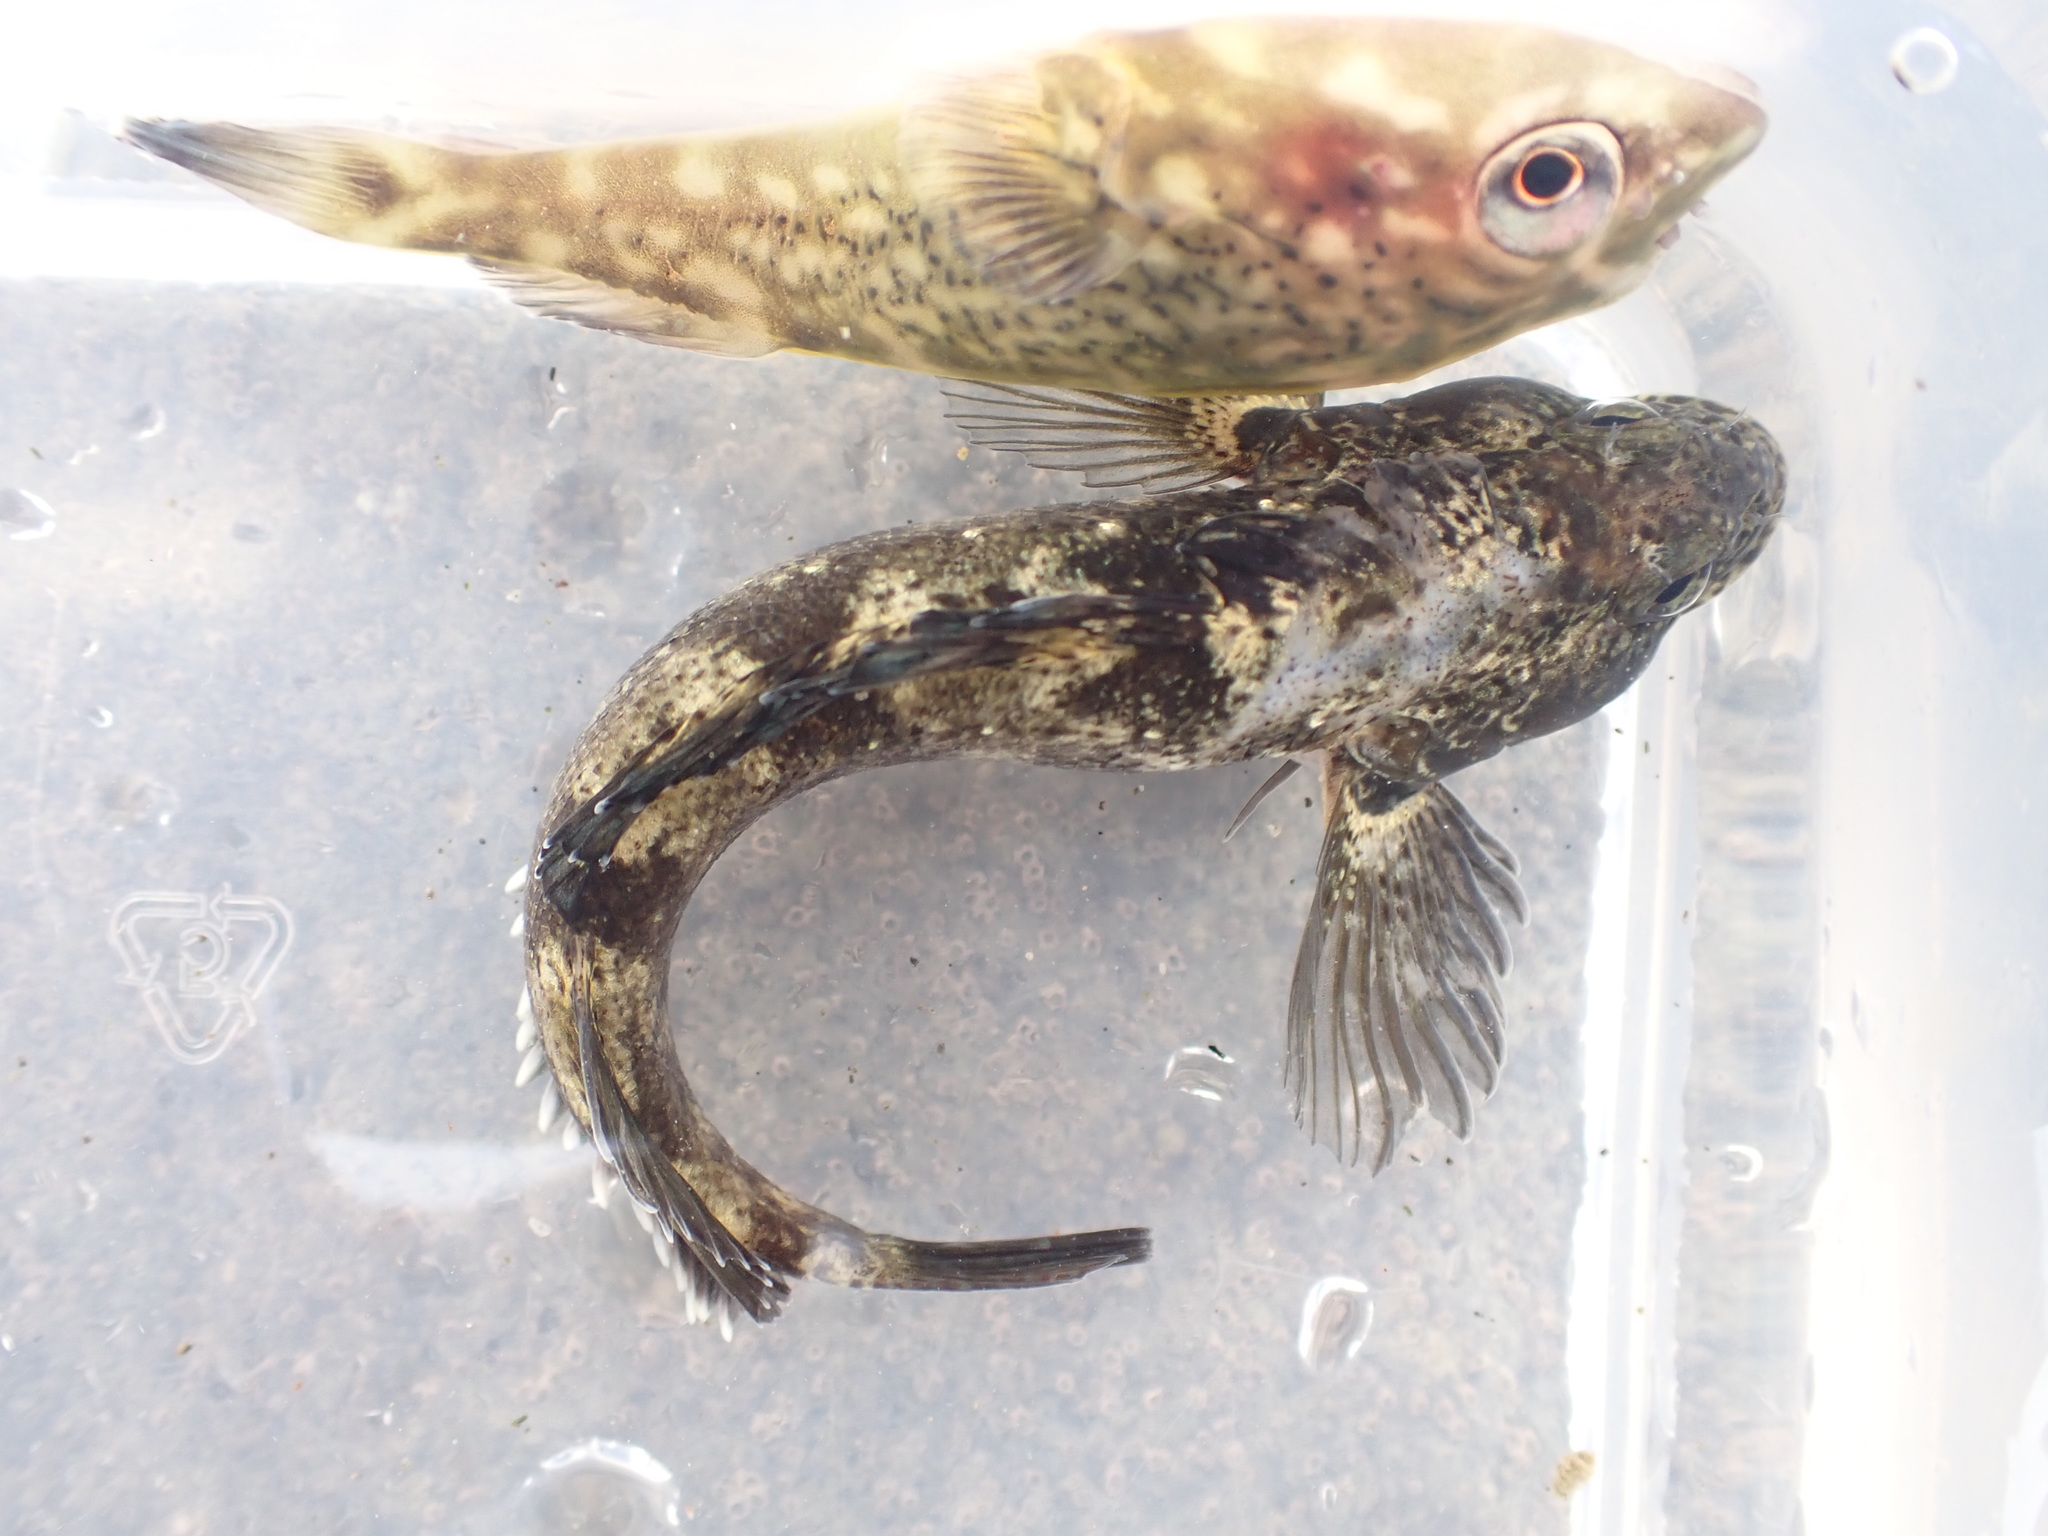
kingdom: Animalia
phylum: Chordata
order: Gobiesociformes
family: Gobiesocidae
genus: Diplocrepis
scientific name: Diplocrepis puniceus
